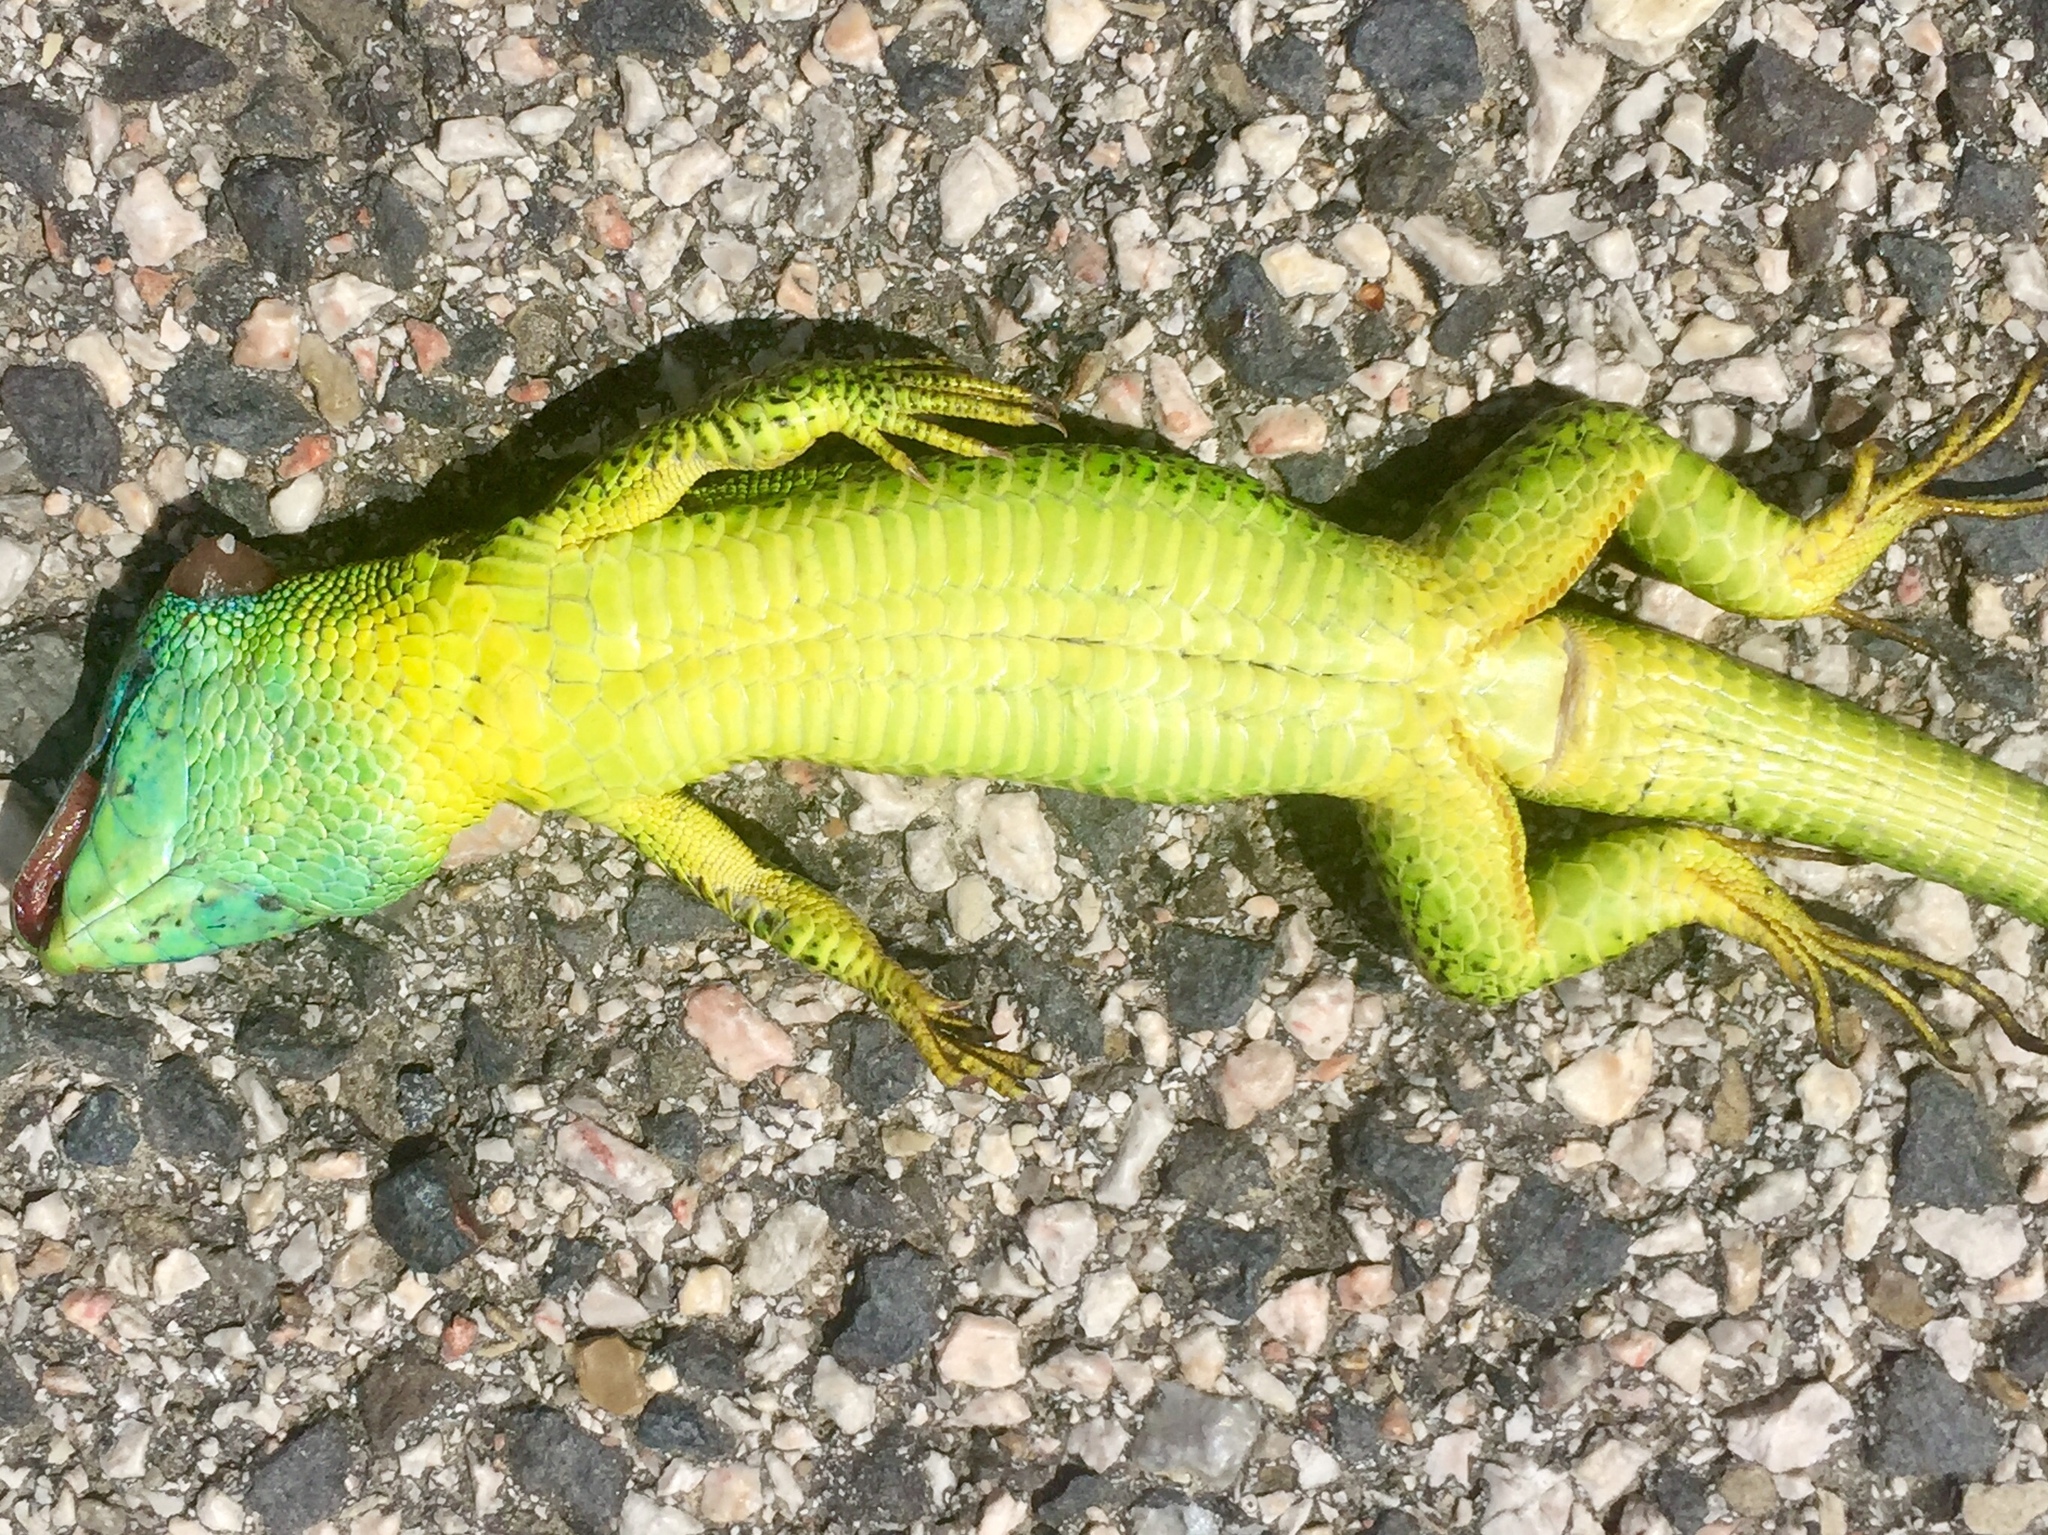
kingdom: Animalia
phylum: Chordata
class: Squamata
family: Lacertidae
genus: Lacerta
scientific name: Lacerta bilineata
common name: Western green lizard
